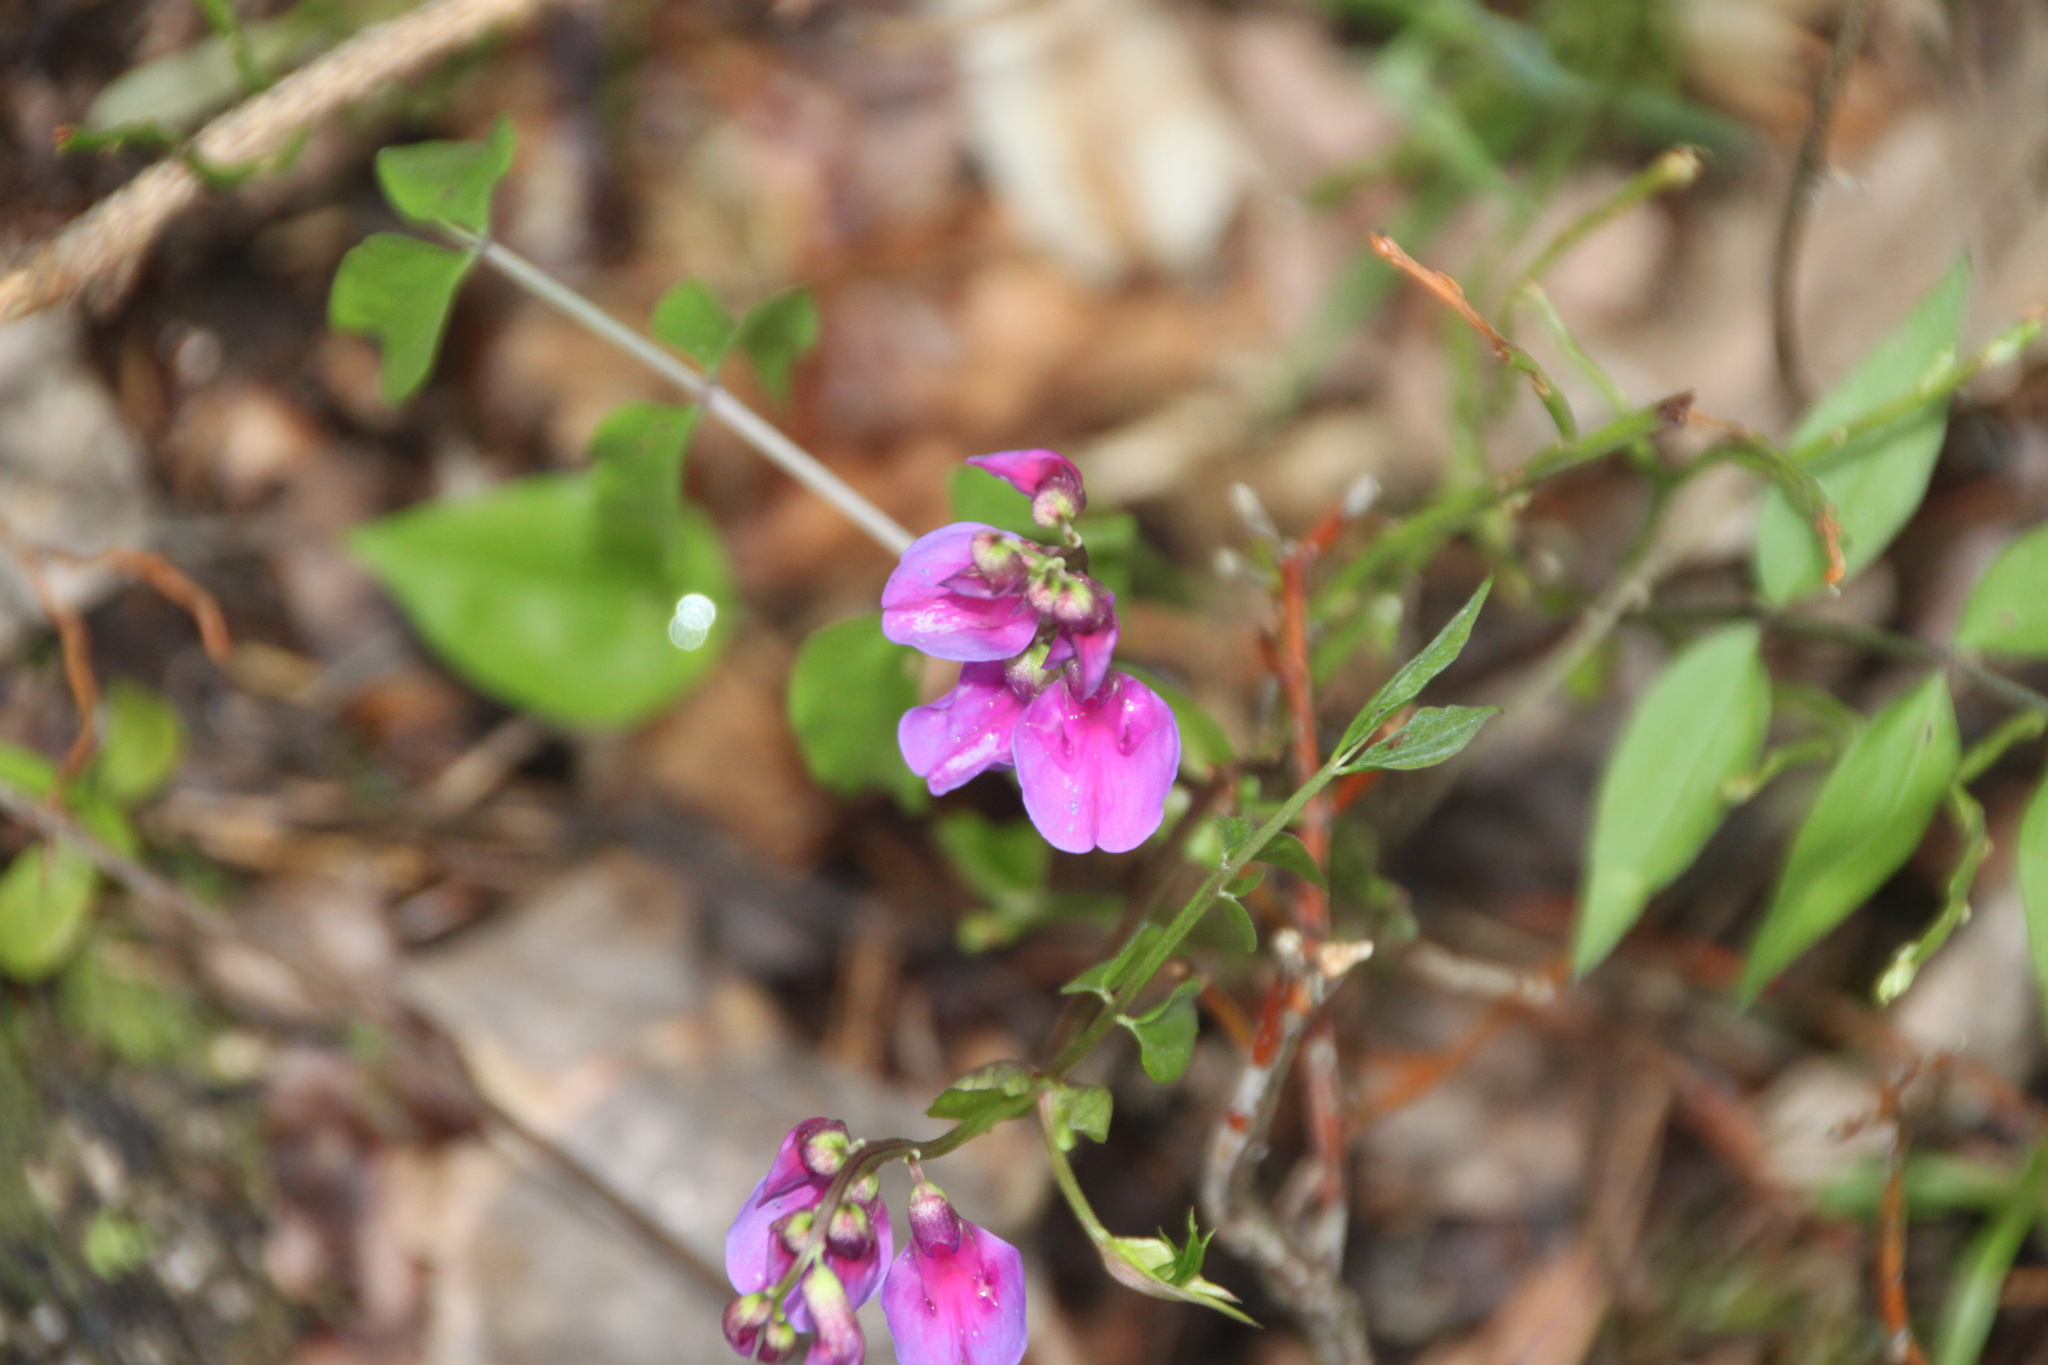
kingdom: Plantae
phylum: Tracheophyta
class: Magnoliopsida
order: Fabales
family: Fabaceae
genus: Lathyrus
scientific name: Lathyrus vernus
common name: Spring pea
